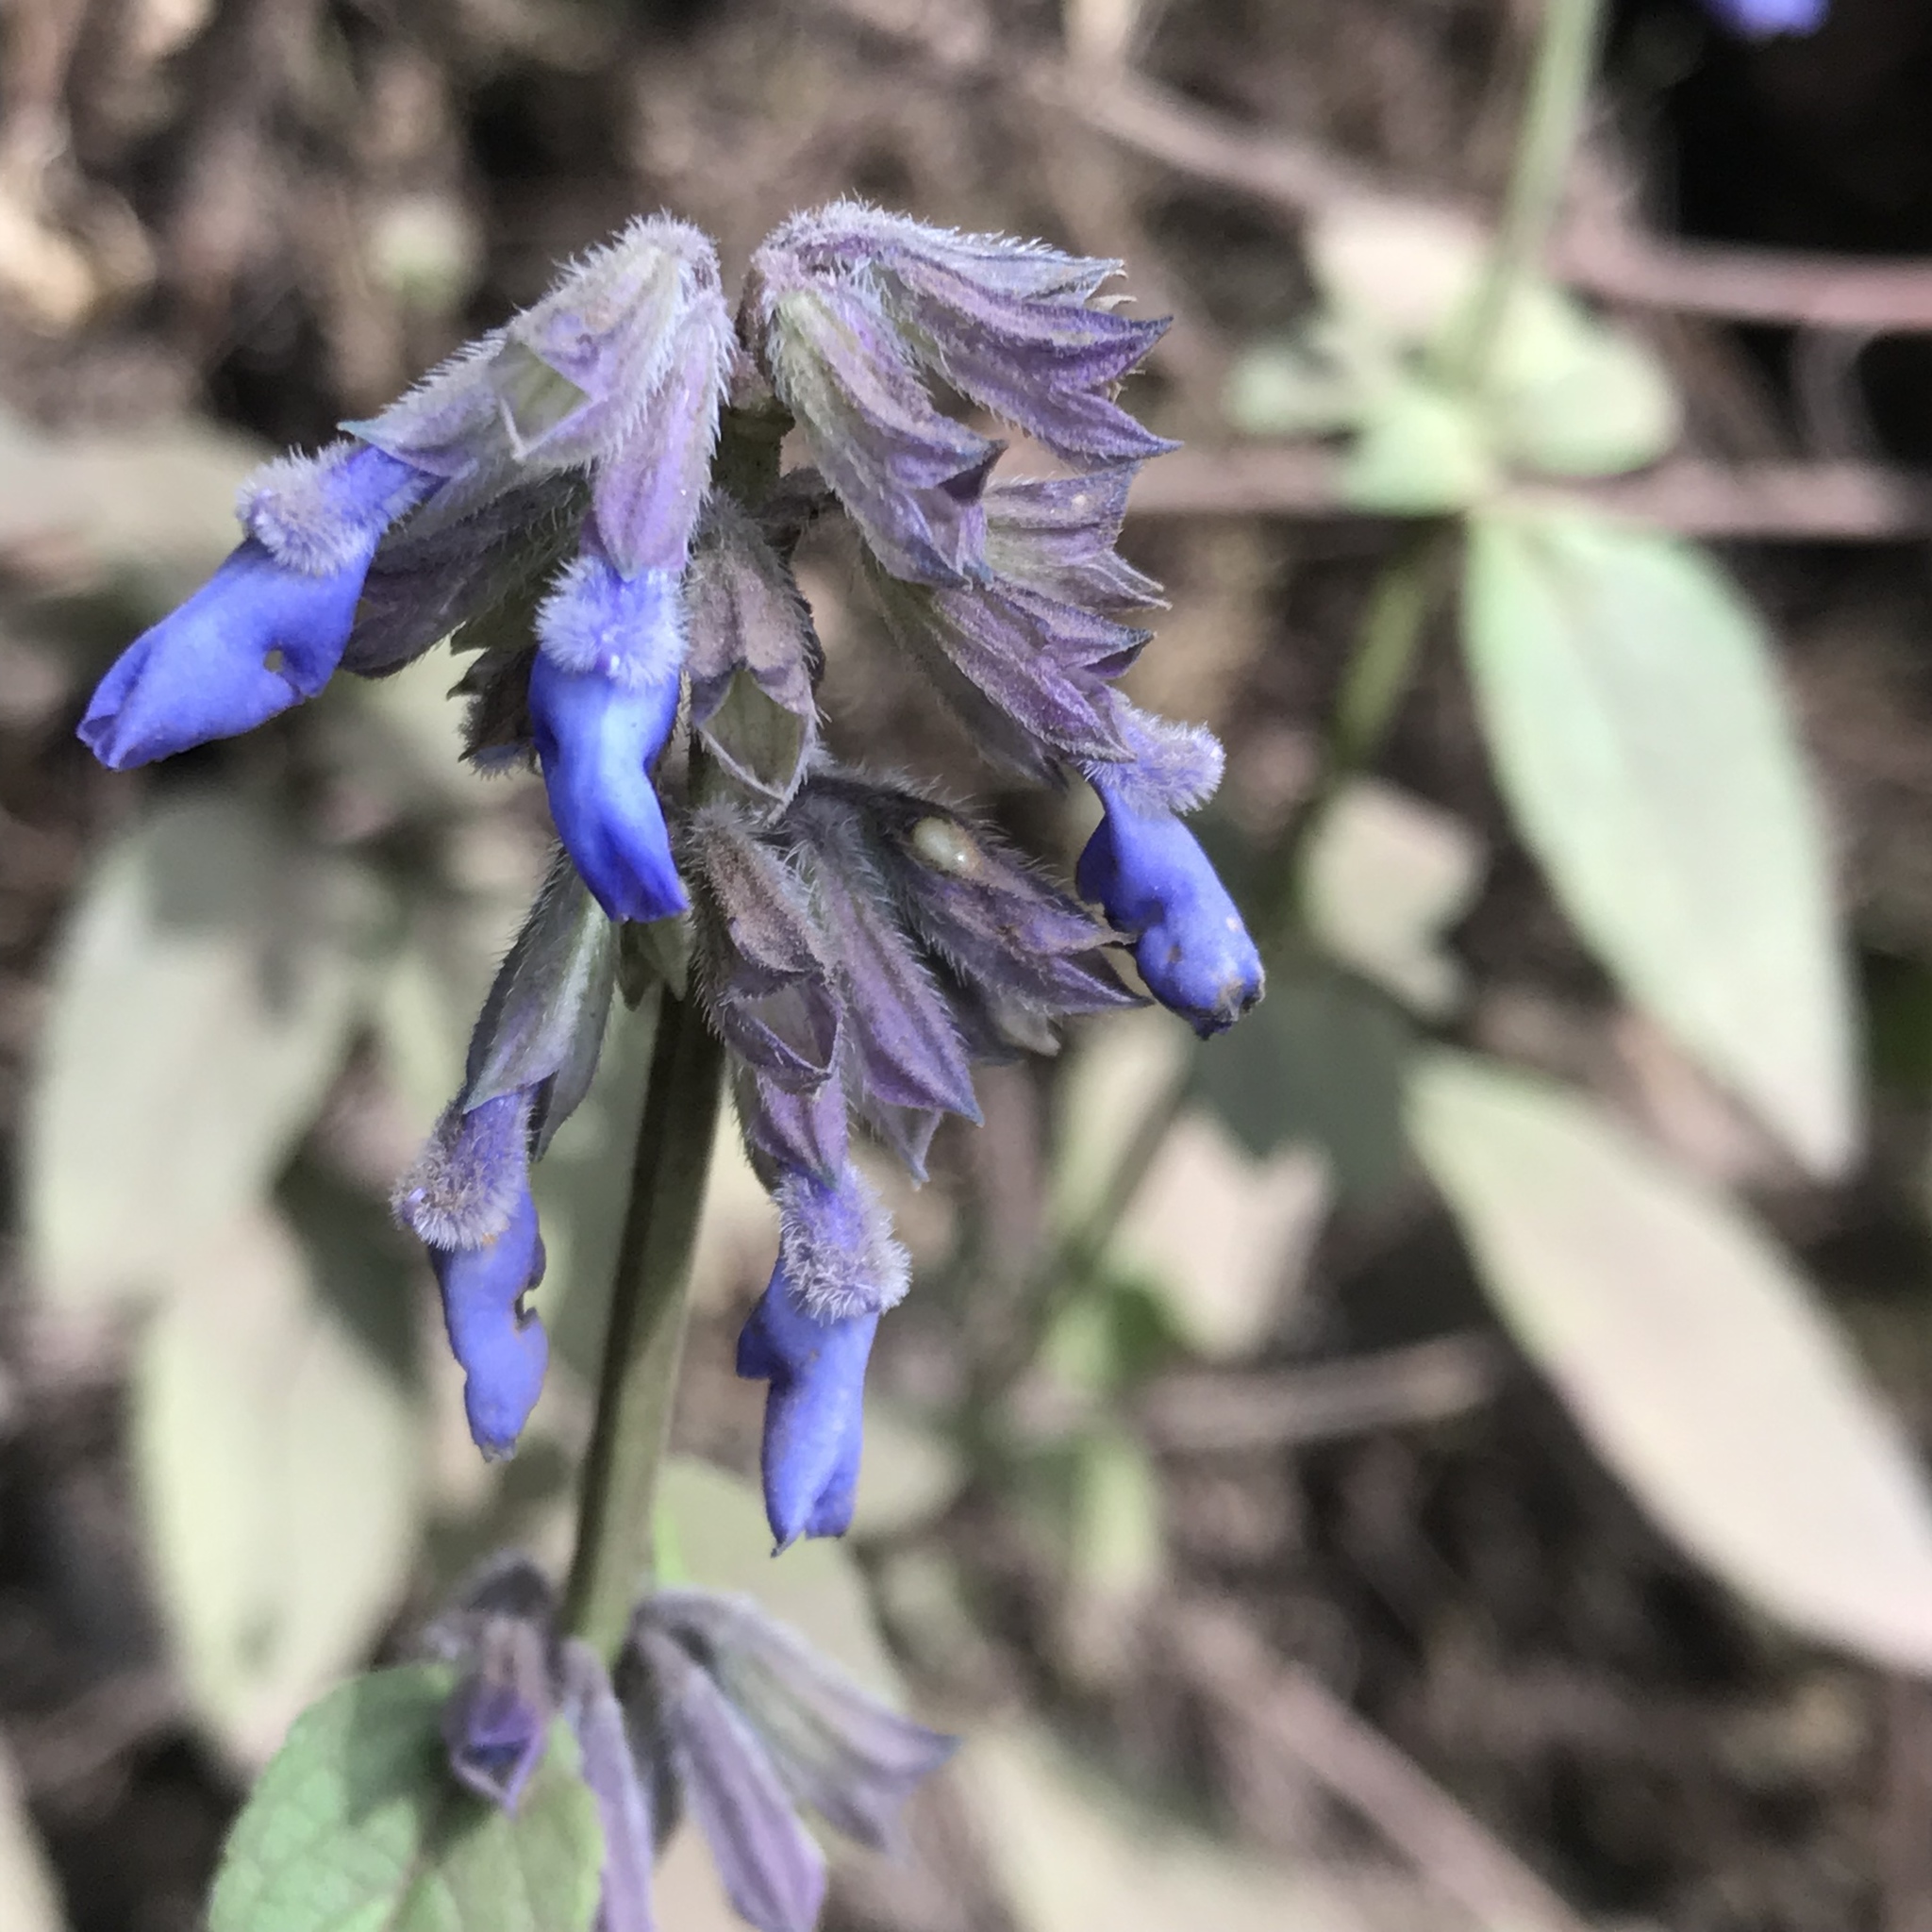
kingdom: Plantae
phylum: Tracheophyta
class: Magnoliopsida
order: Lamiales
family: Lamiaceae
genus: Salvia
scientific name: Salvia helianthemifolia
